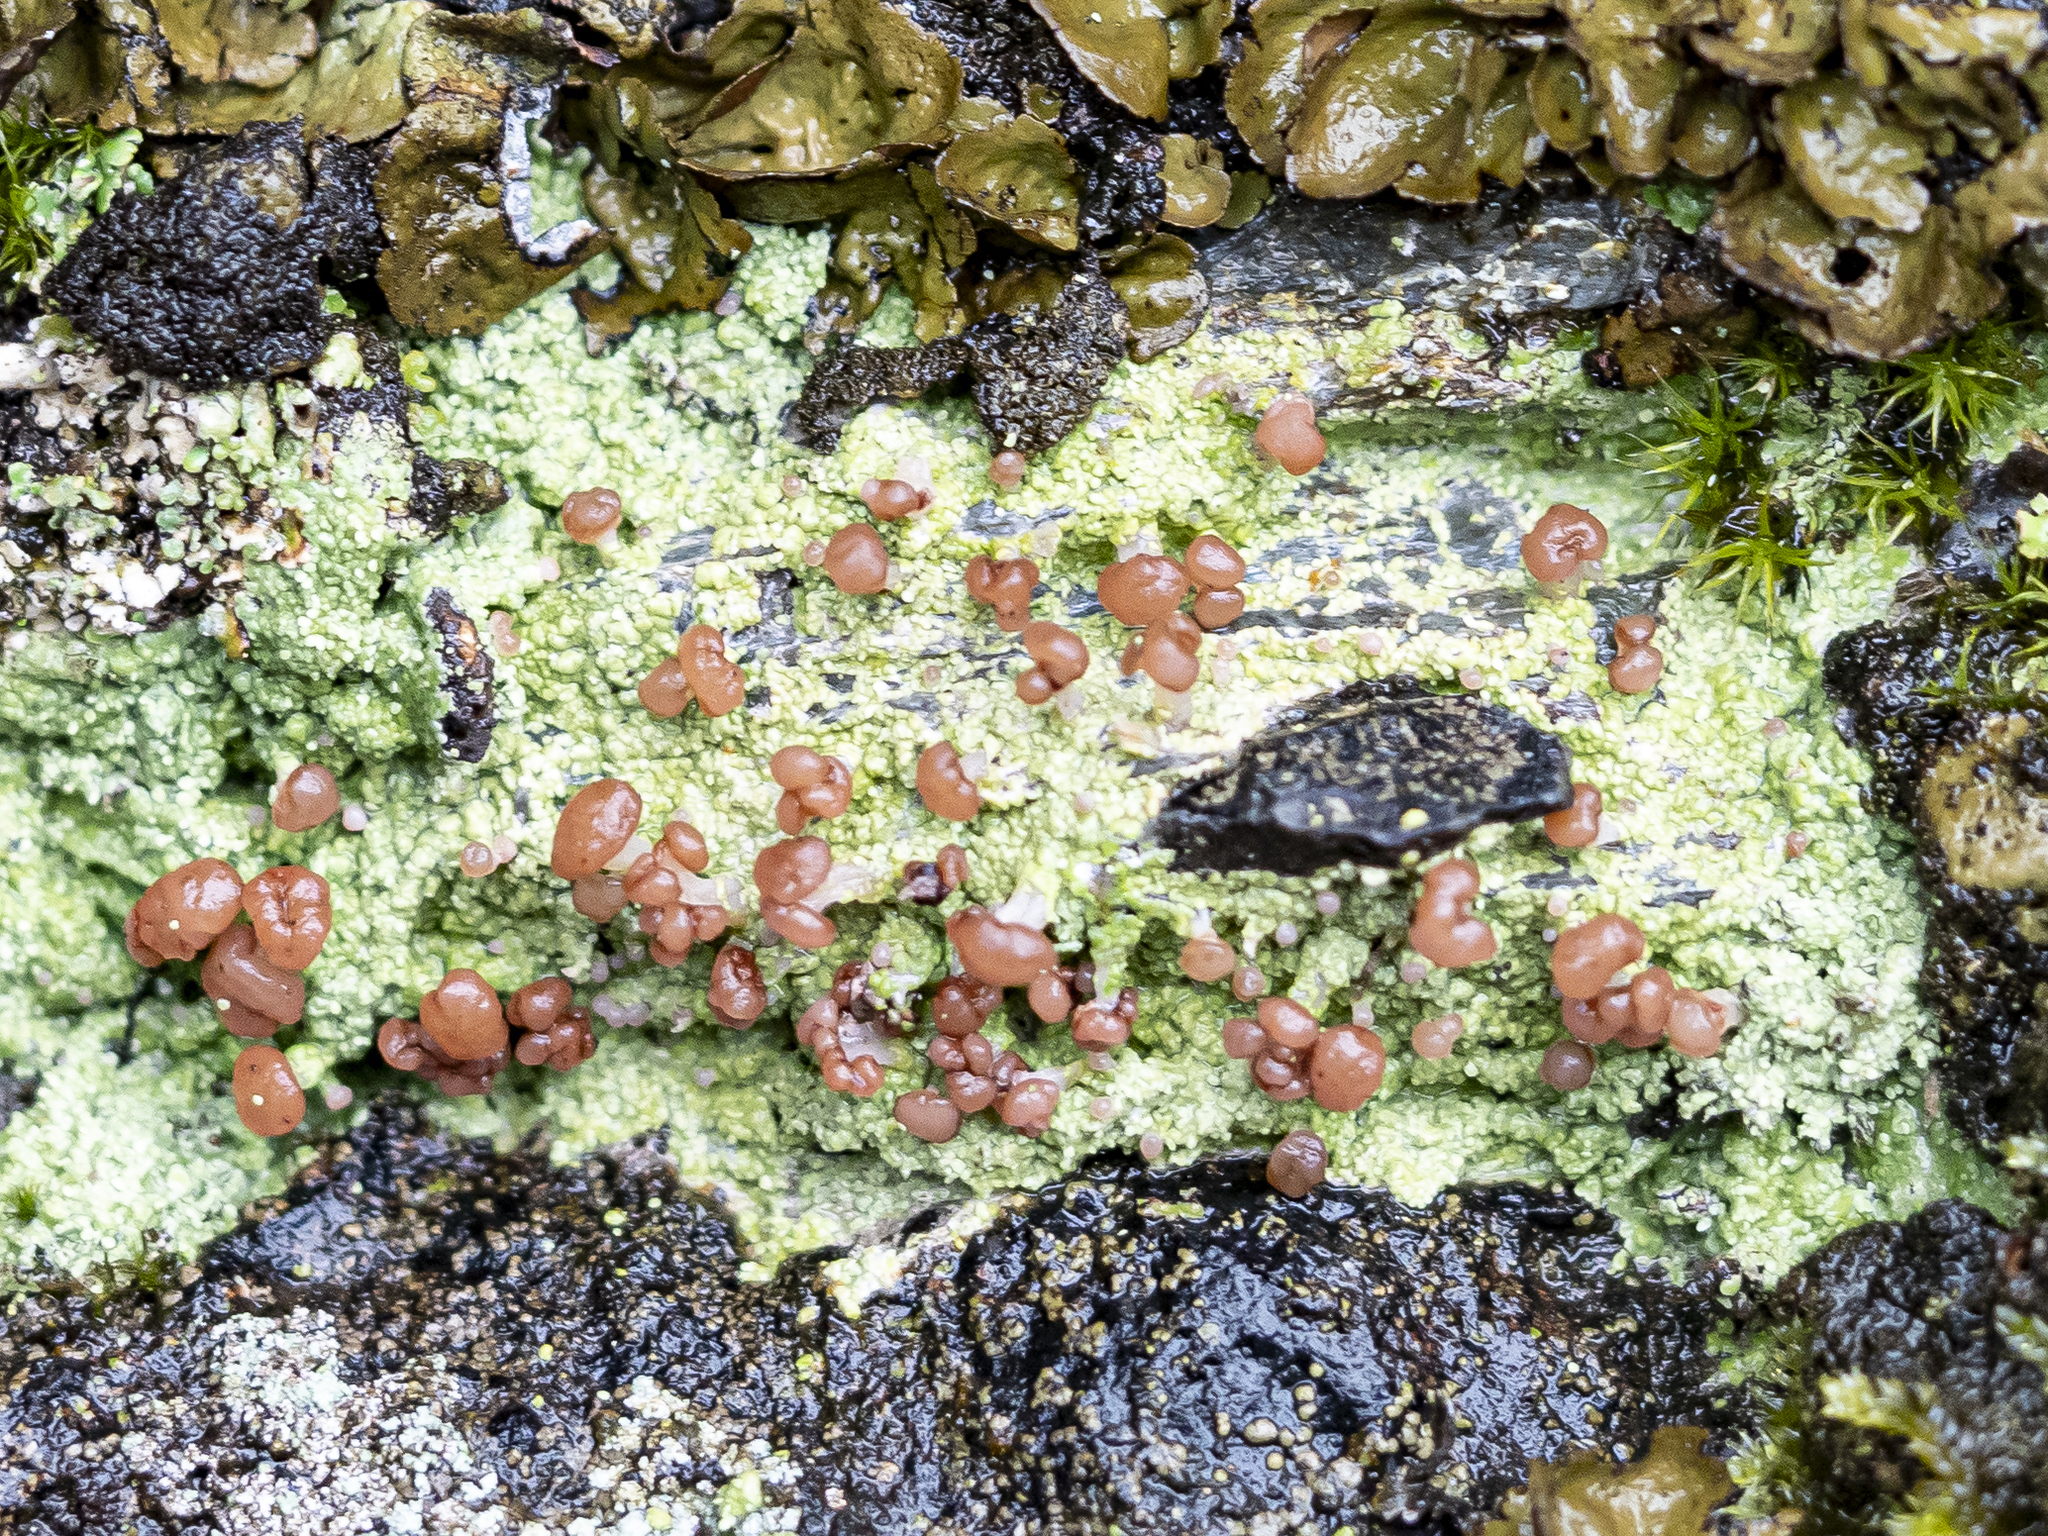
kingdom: Fungi
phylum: Ascomycota
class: Lecanoromycetes
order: Baeomycetales
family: Baeomycetaceae
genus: Baeomyces
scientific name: Baeomyces rufus
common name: Brown beret lichen
